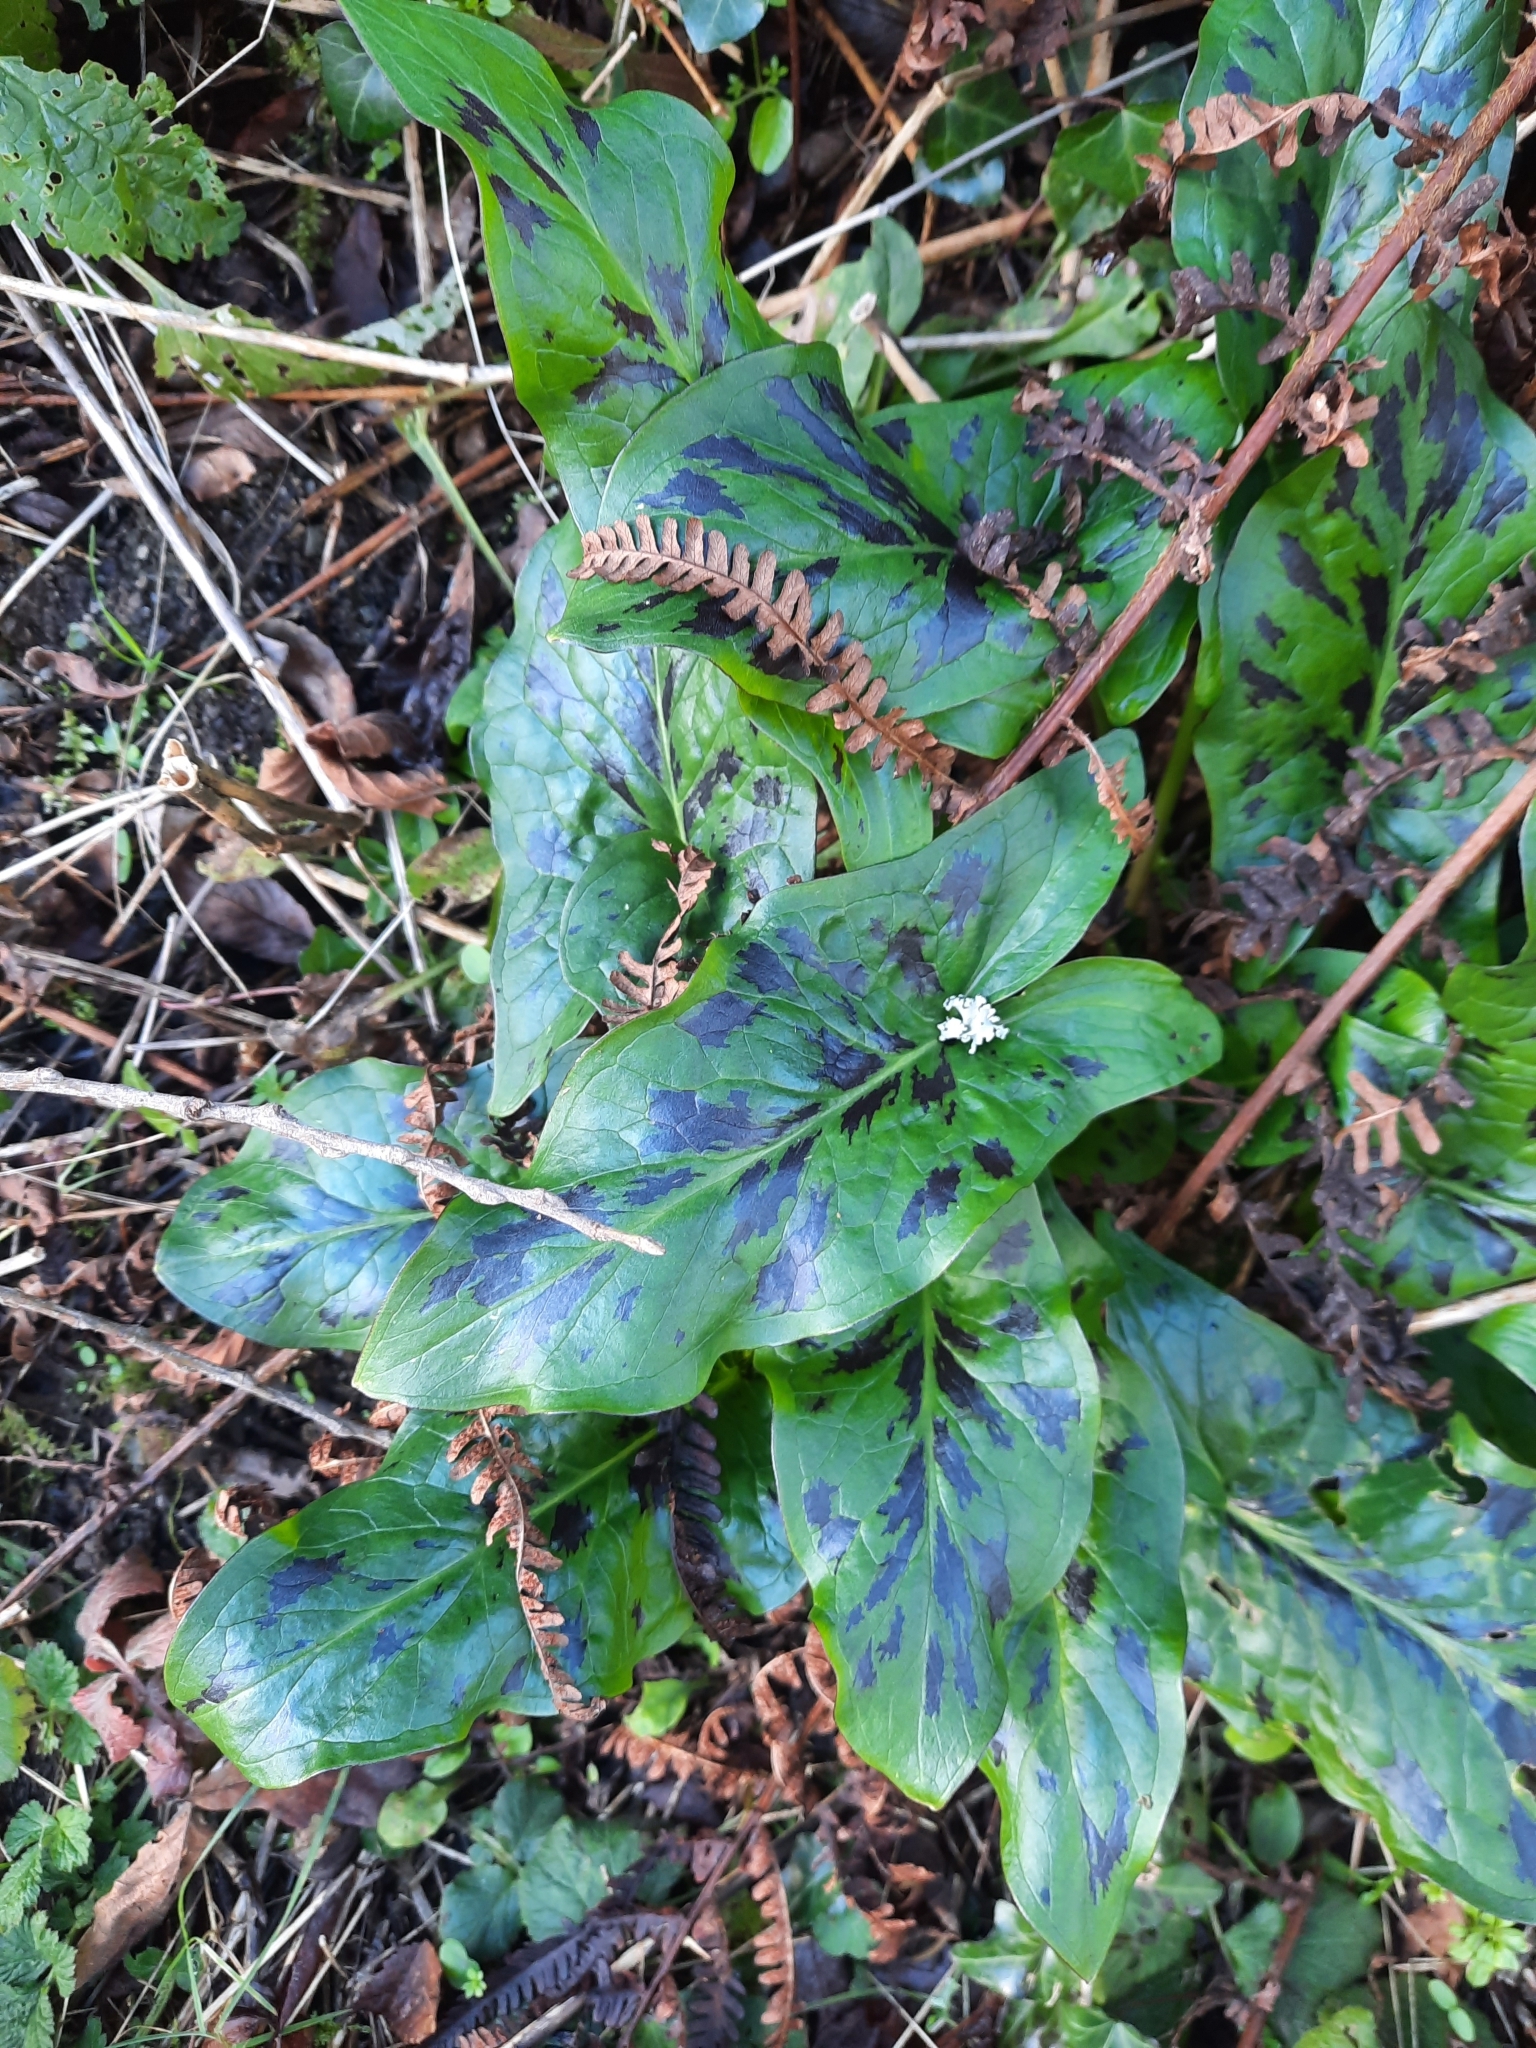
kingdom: Plantae
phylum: Tracheophyta
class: Liliopsida
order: Alismatales
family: Araceae
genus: Arum
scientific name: Arum maculatum
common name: Lords-and-ladies
